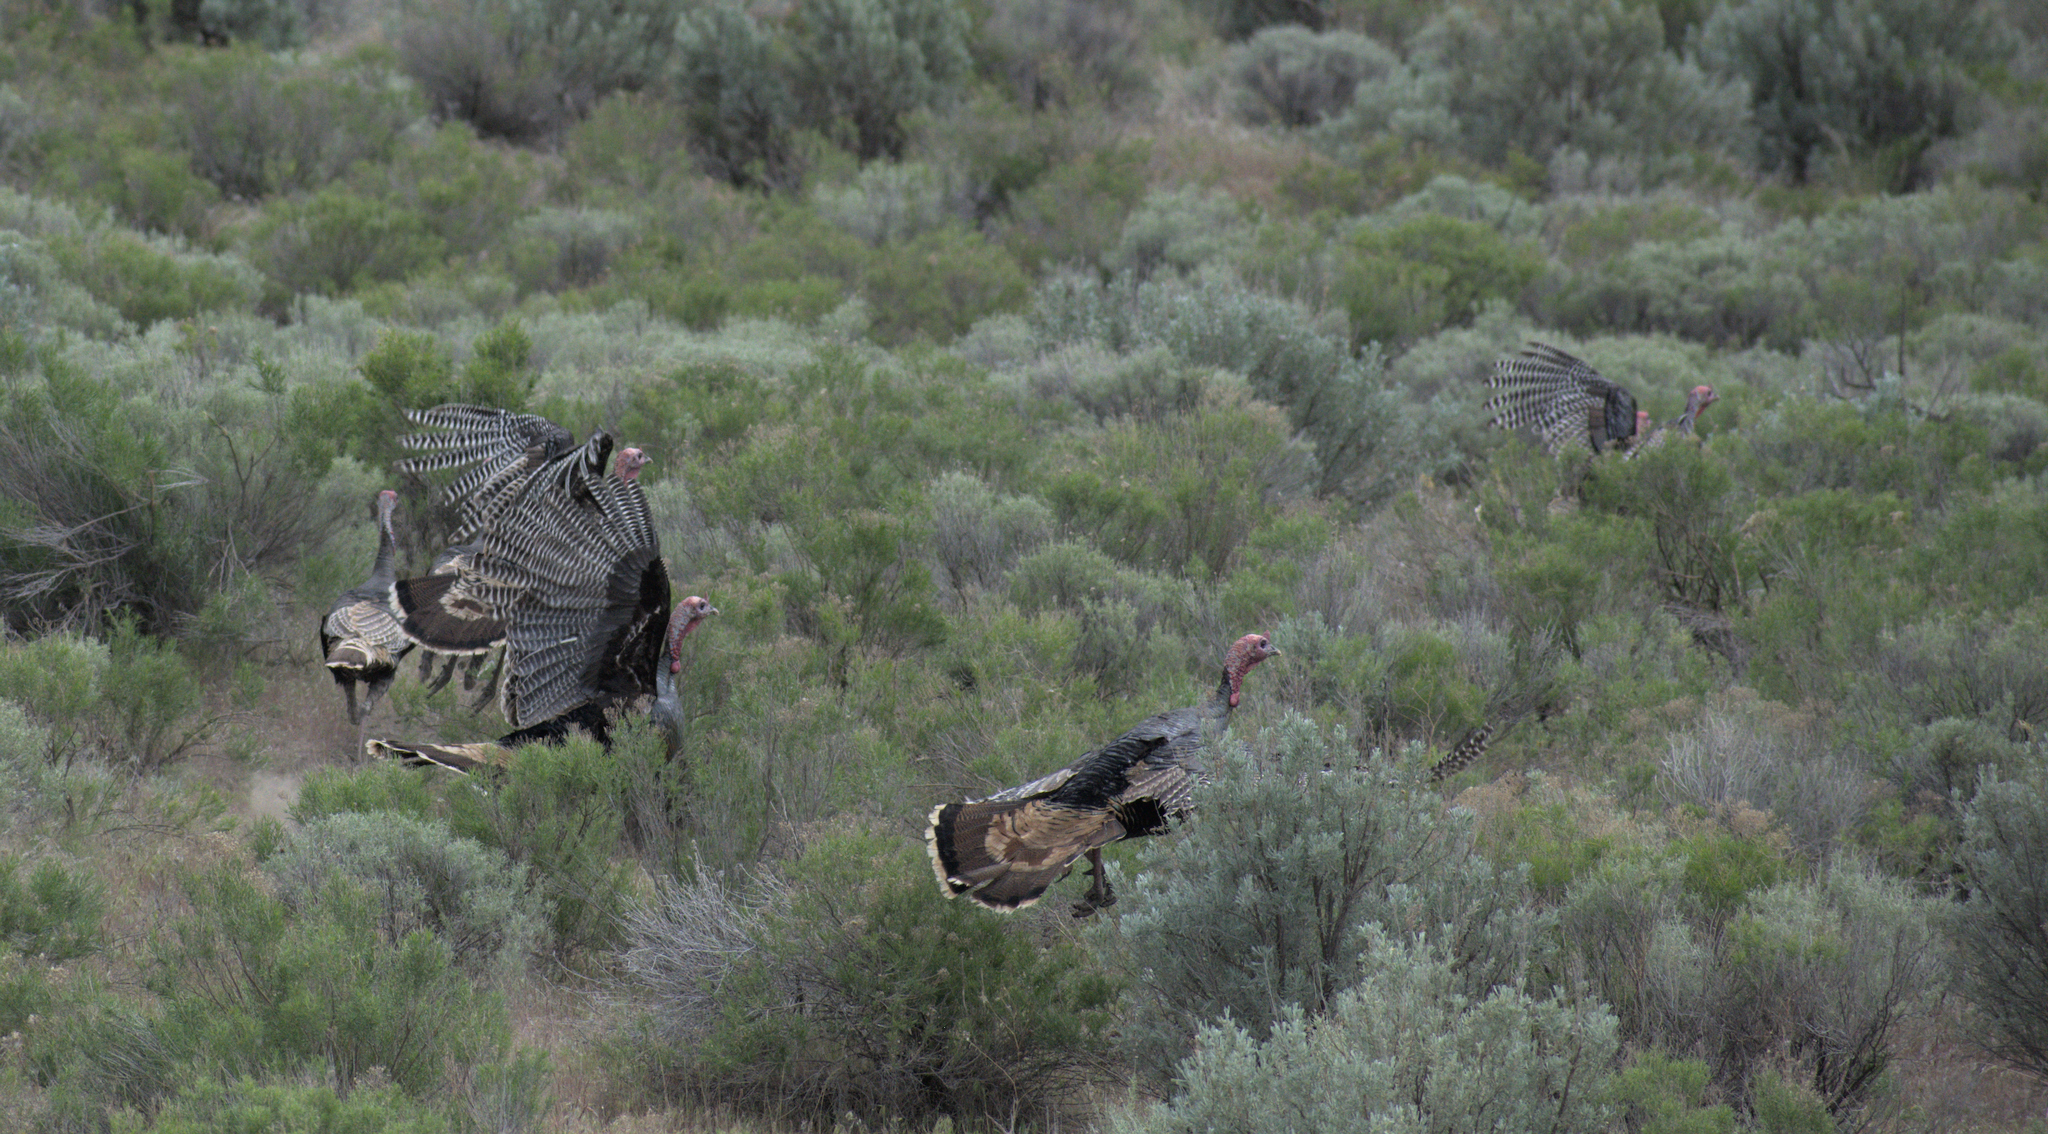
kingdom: Animalia
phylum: Chordata
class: Aves
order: Galliformes
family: Phasianidae
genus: Meleagris
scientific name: Meleagris gallopavo
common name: Wild turkey
